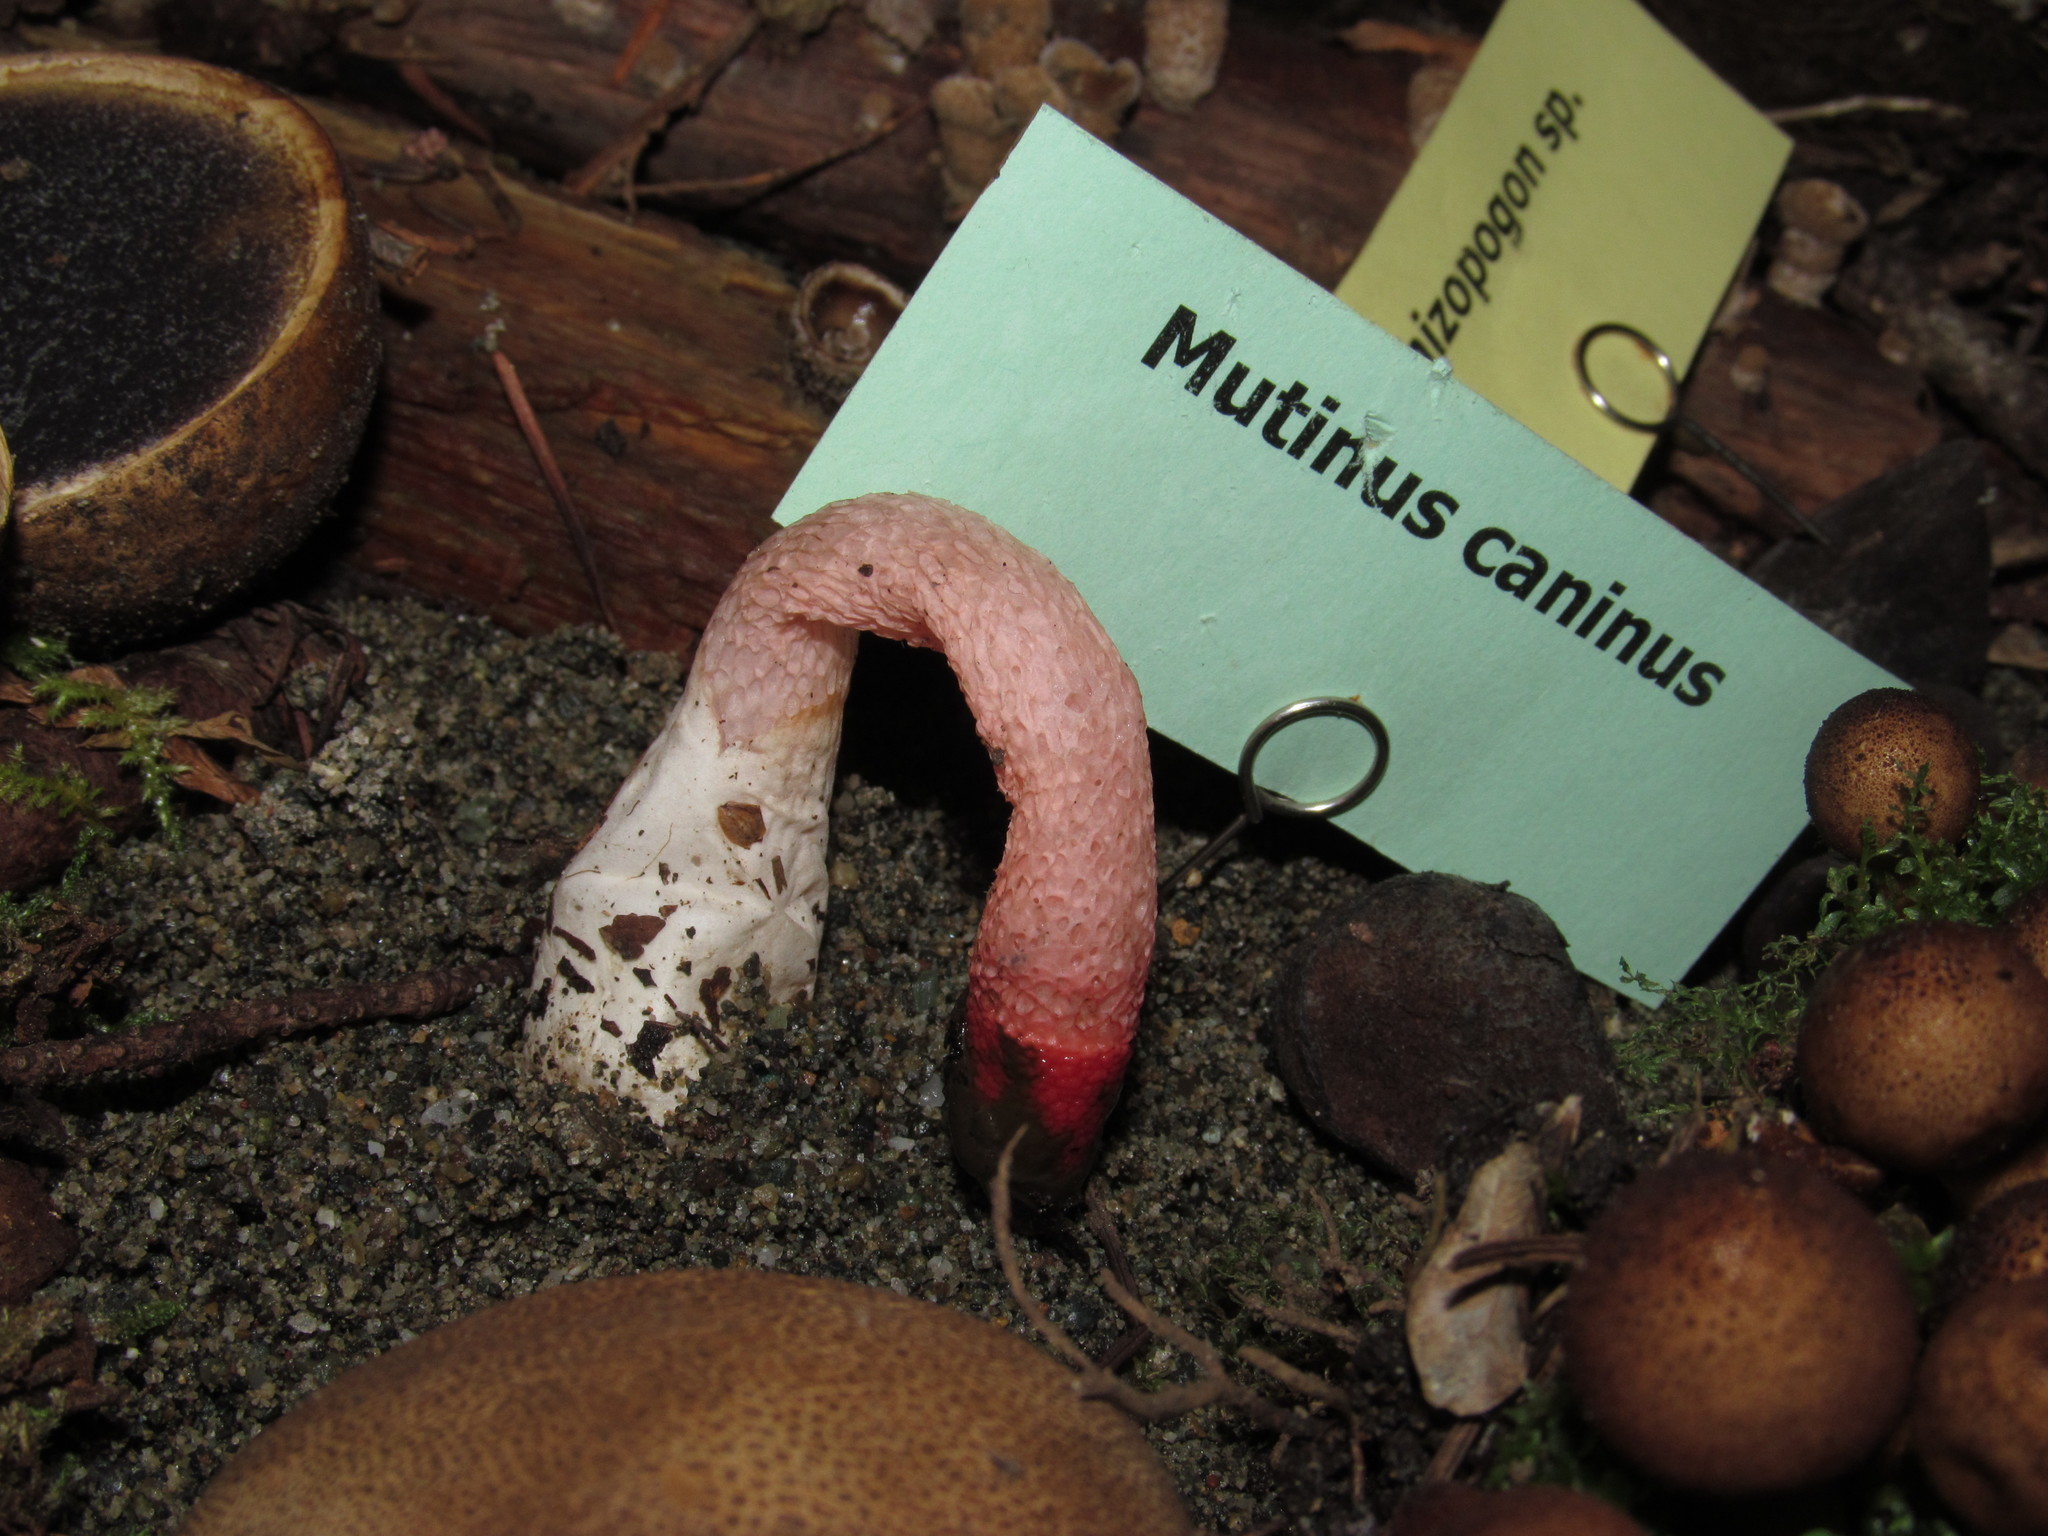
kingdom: Fungi
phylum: Basidiomycota
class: Agaricomycetes
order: Phallales
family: Phallaceae
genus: Mutinus
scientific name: Mutinus ravenelii
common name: Red stinkhorn
